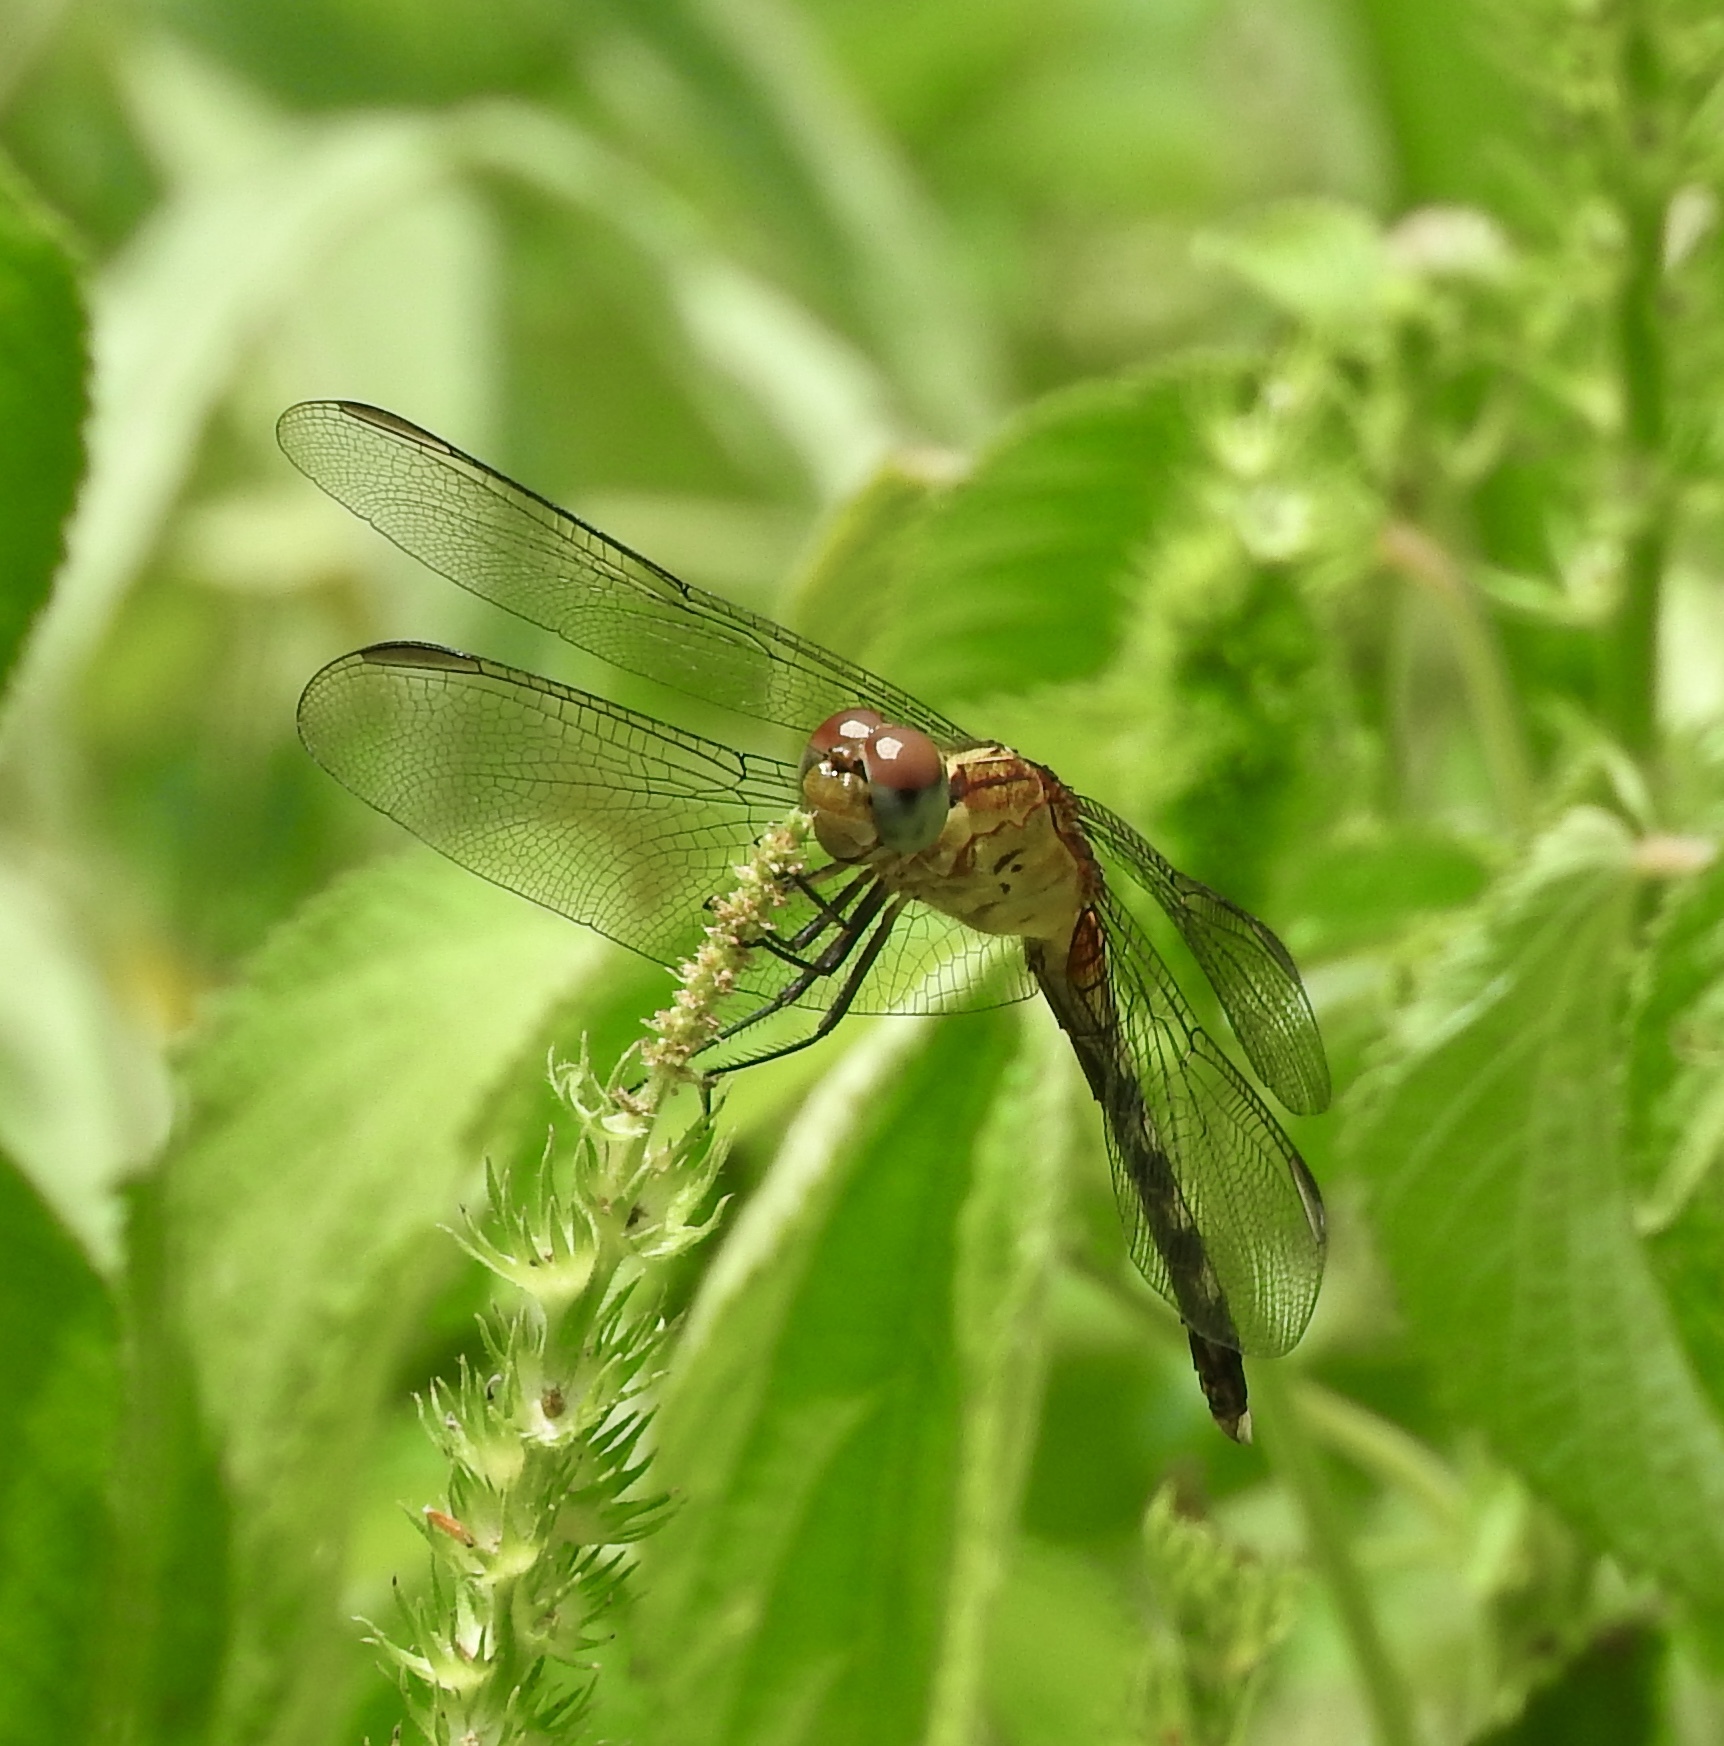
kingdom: Animalia
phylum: Arthropoda
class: Insecta
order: Odonata
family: Libellulidae
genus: Erythrodiplax
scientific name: Erythrodiplax umbrata
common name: Band-winged dragonlet
